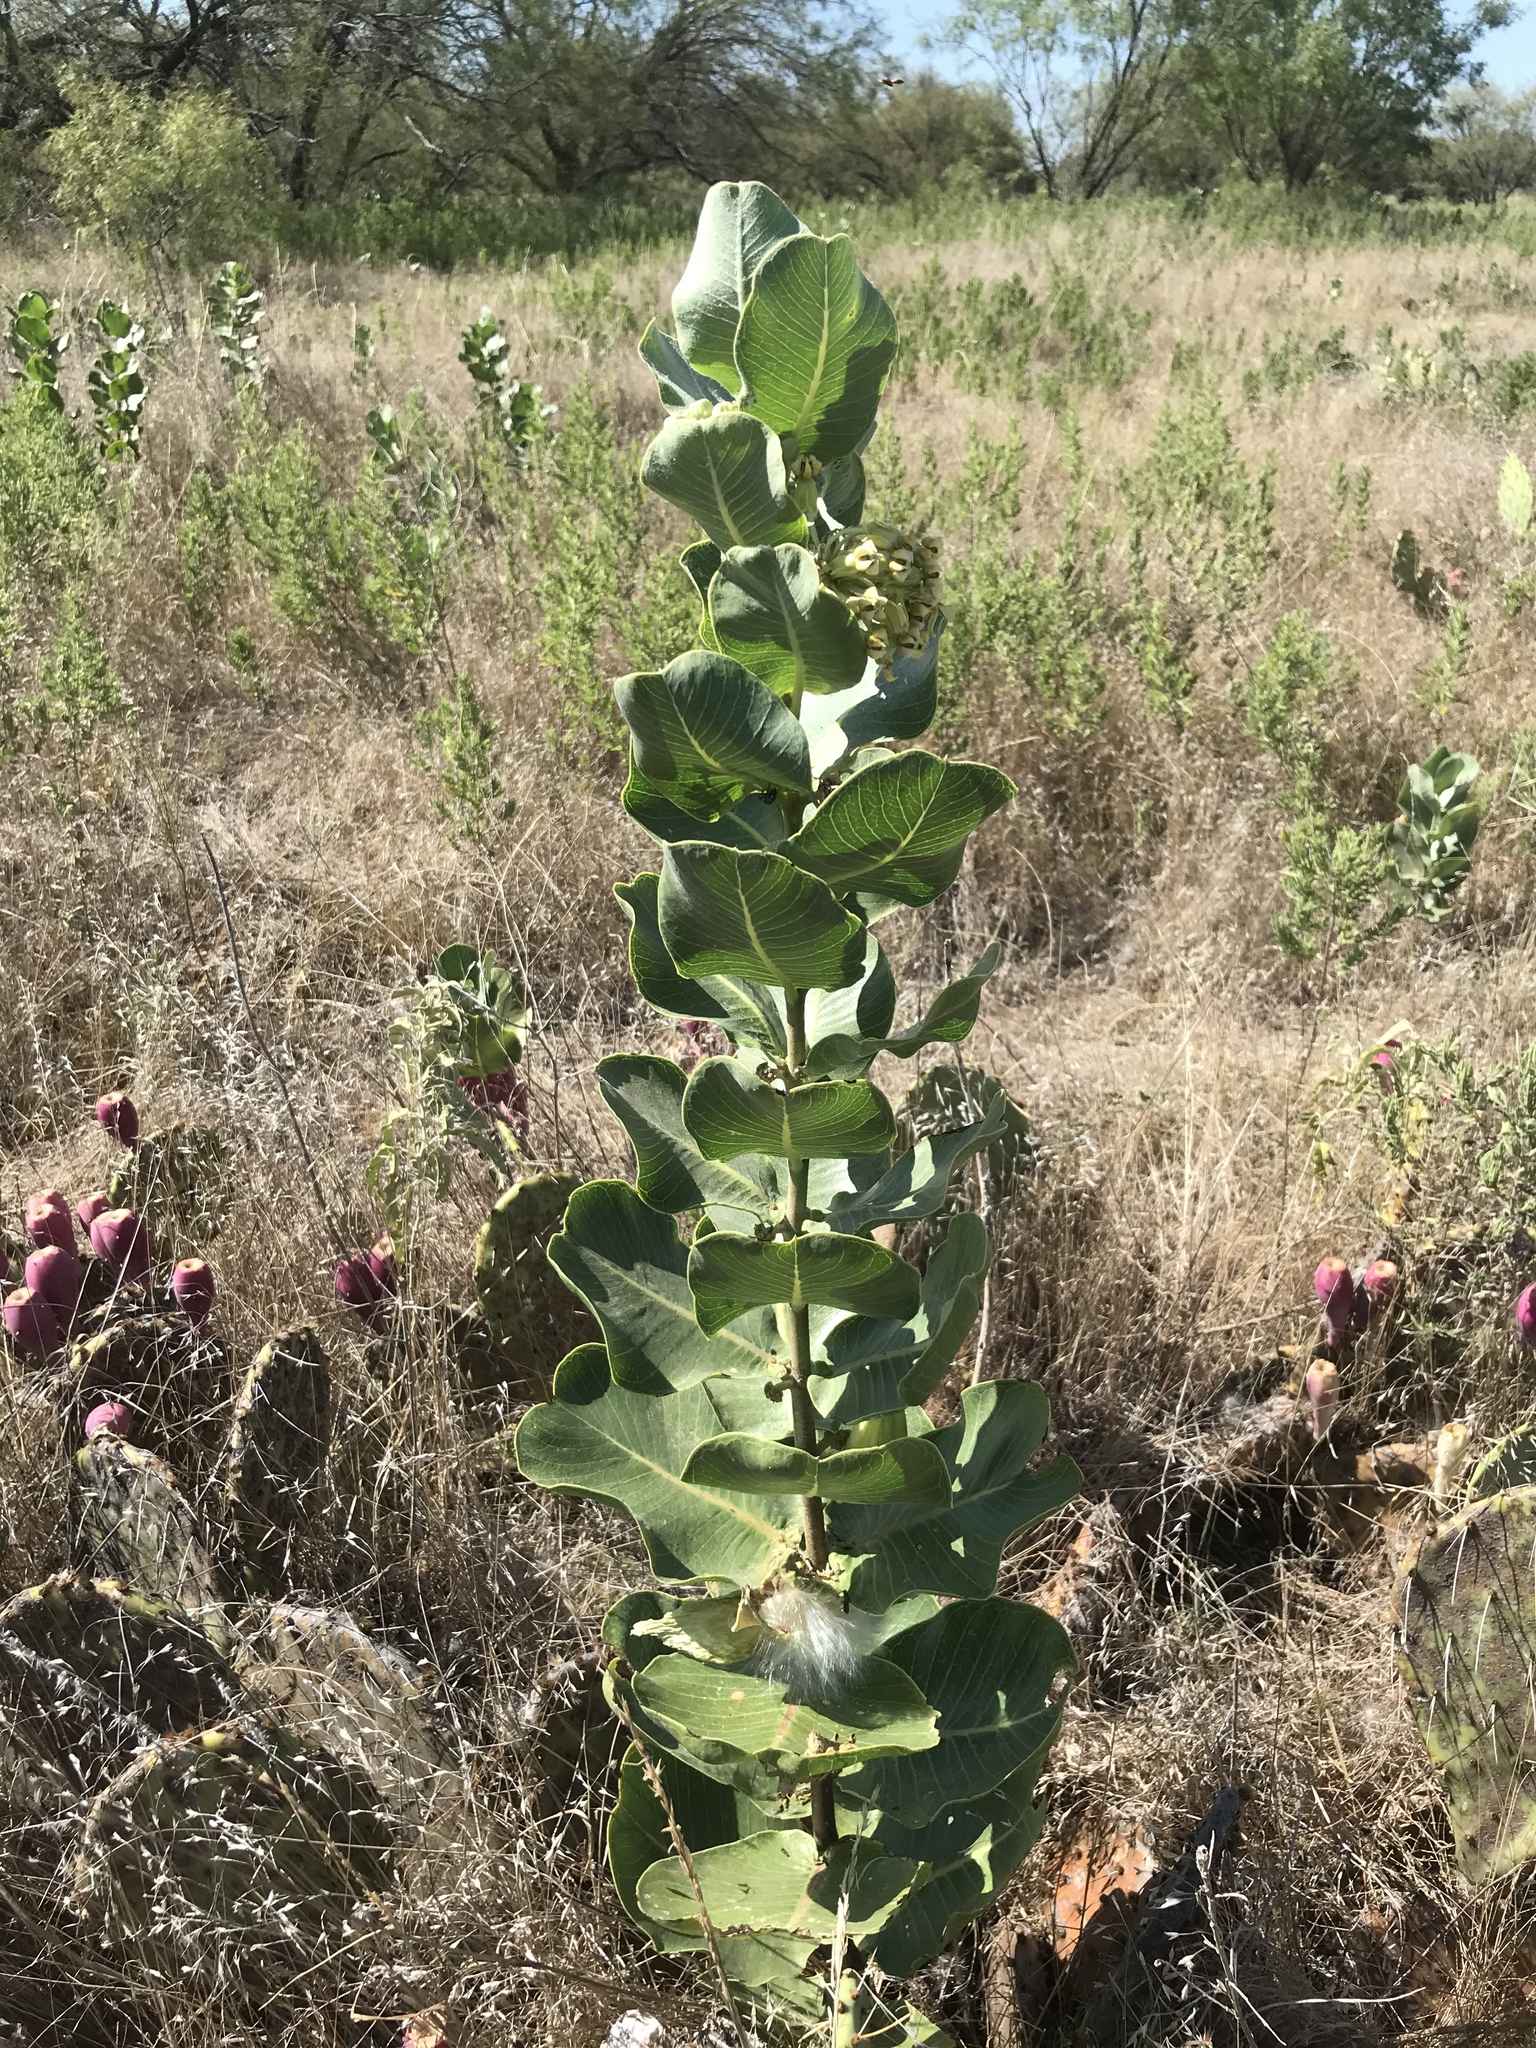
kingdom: Plantae
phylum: Tracheophyta
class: Magnoliopsida
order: Gentianales
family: Apocynaceae
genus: Asclepias
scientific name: Asclepias latifolia
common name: Broadleaf milkweed
